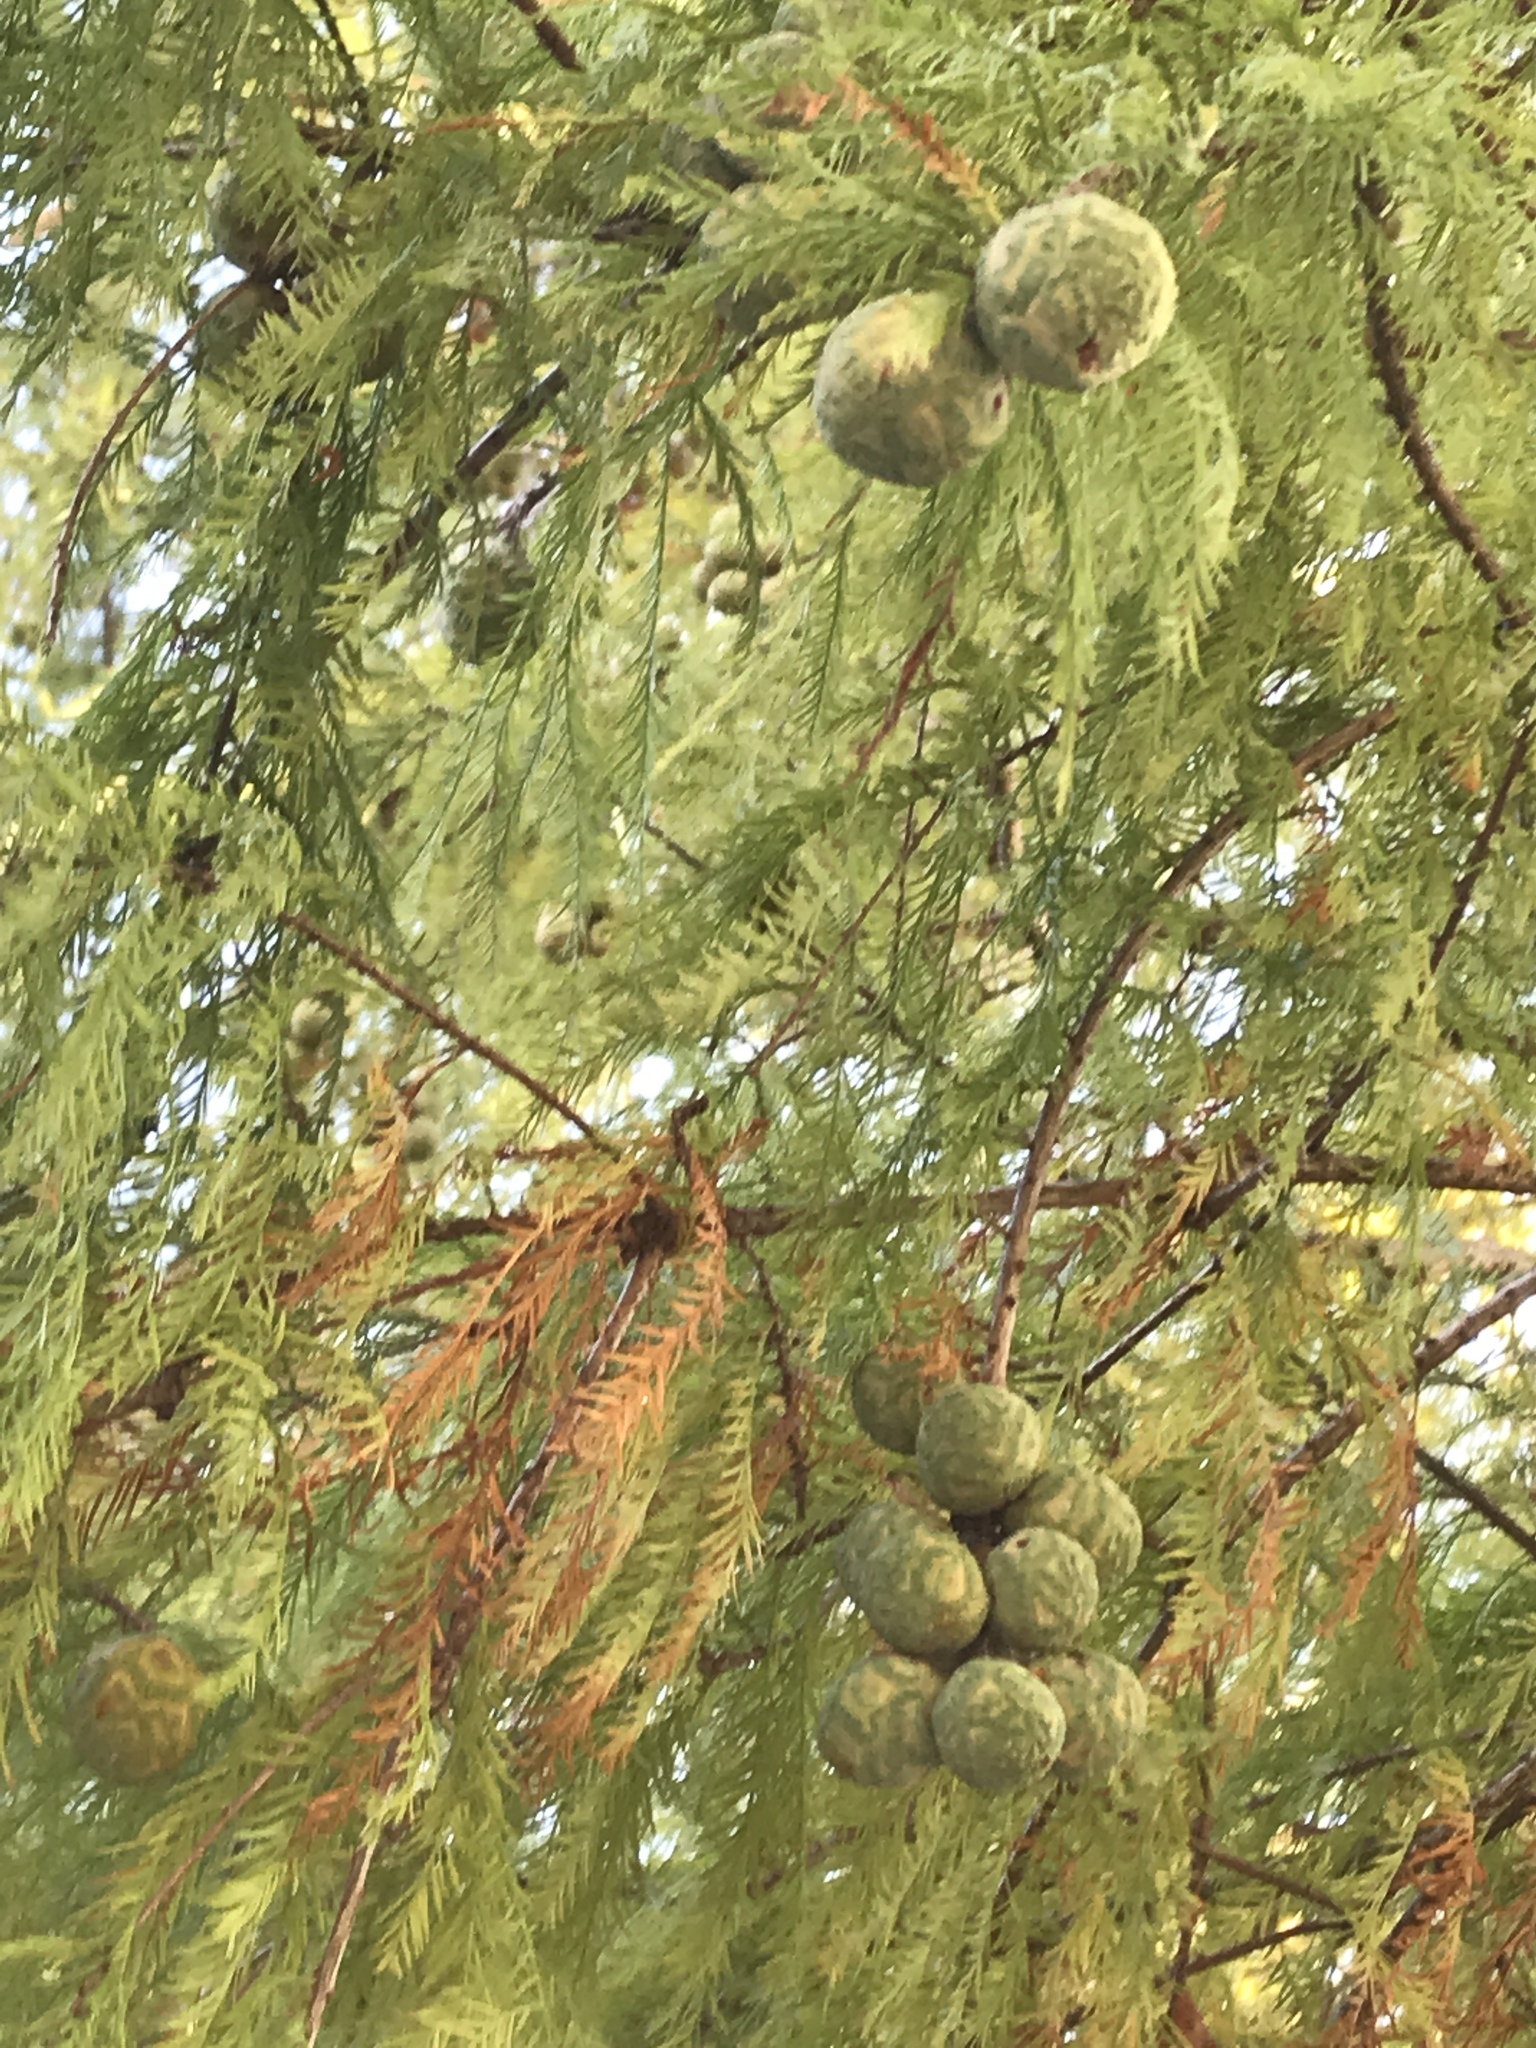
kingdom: Plantae
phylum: Tracheophyta
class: Pinopsida
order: Pinales
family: Cupressaceae
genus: Taxodium
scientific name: Taxodium distichum
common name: Bald cypress
